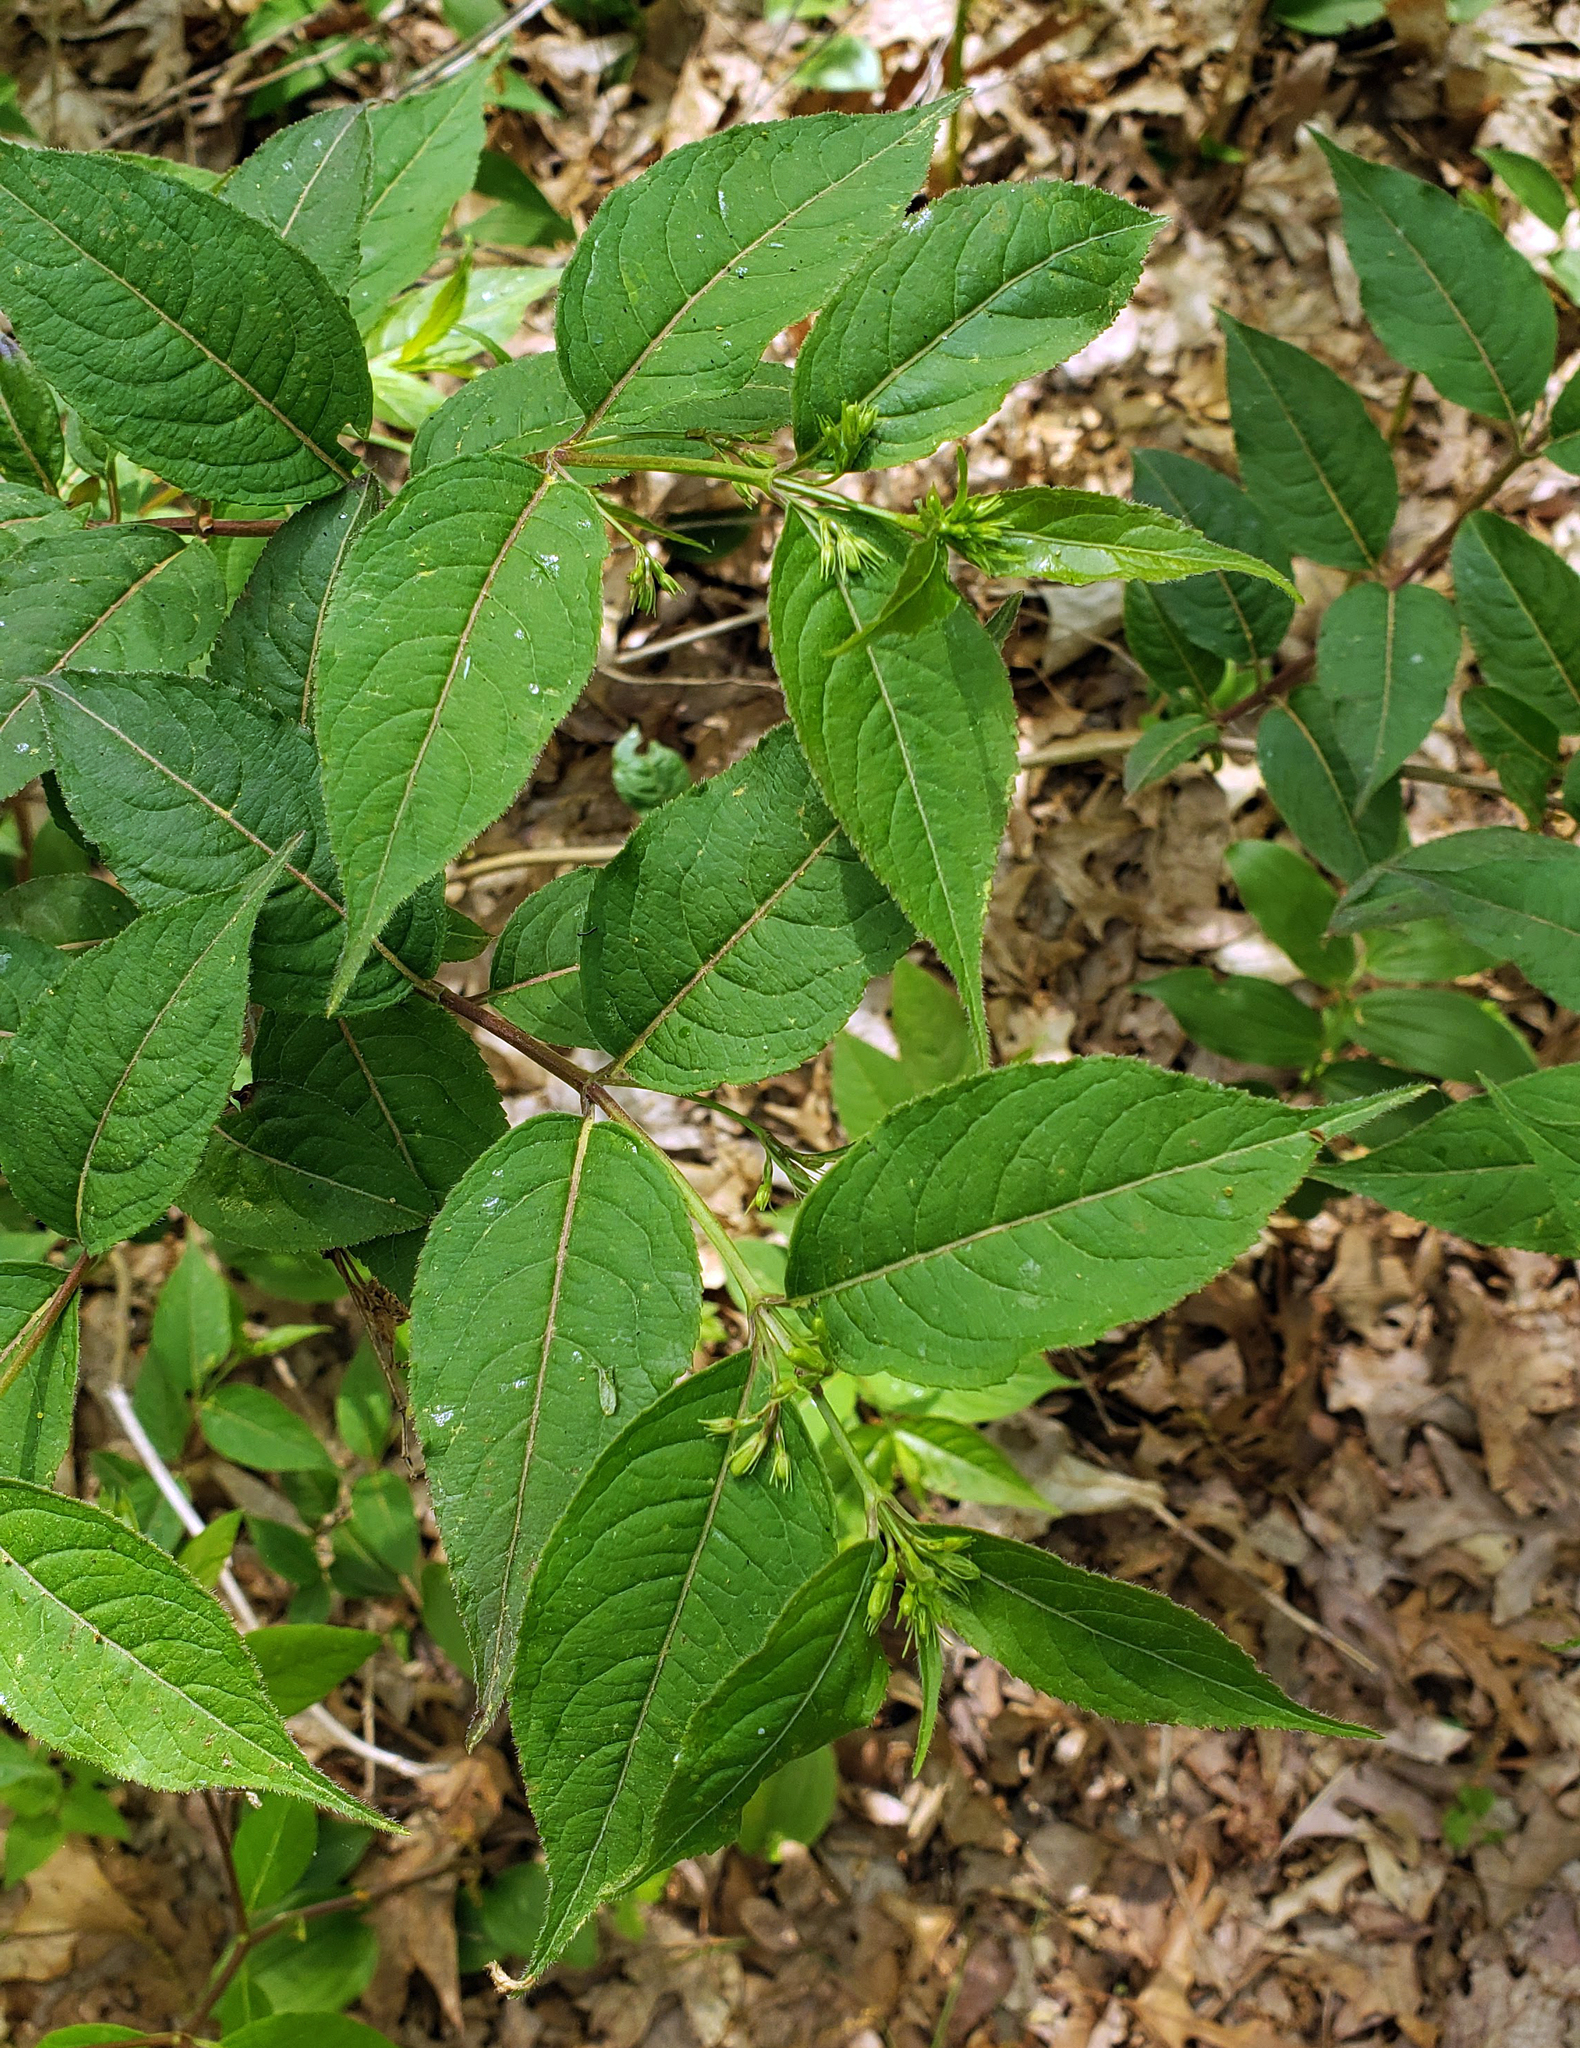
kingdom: Plantae
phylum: Tracheophyta
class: Magnoliopsida
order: Dipsacales
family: Caprifoliaceae
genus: Diervilla
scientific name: Diervilla lonicera
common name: Bush-honeysuckle
